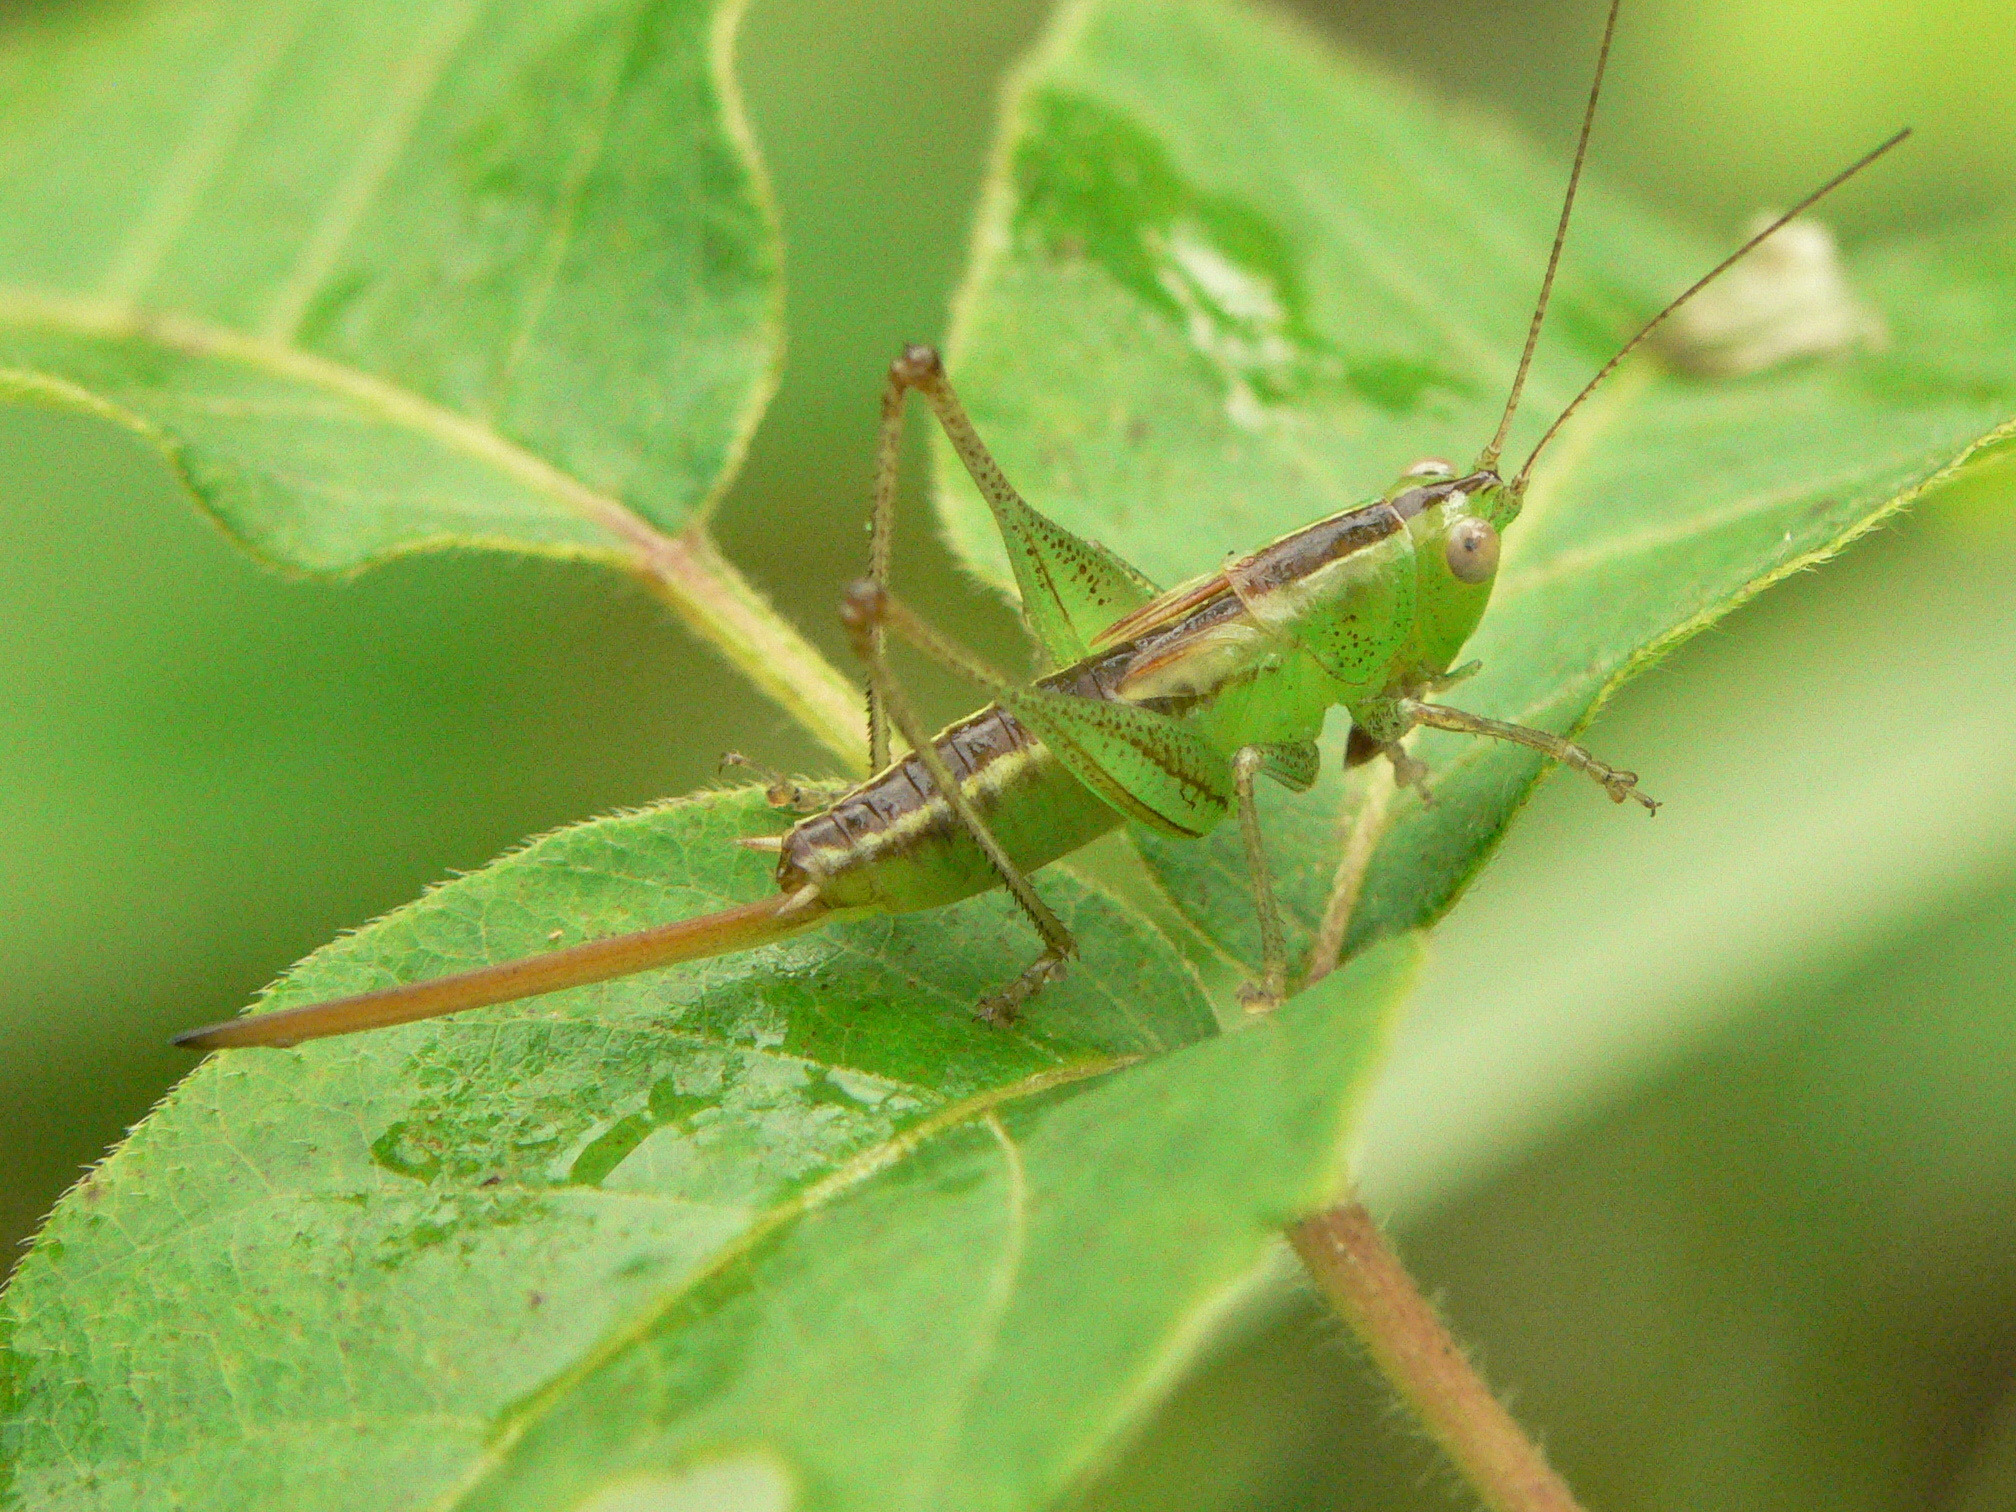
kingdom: Animalia
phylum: Arthropoda
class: Insecta
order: Orthoptera
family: Tettigoniidae
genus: Conocephalus
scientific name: Conocephalus brevipennis
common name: Short-winged meadow katydid
